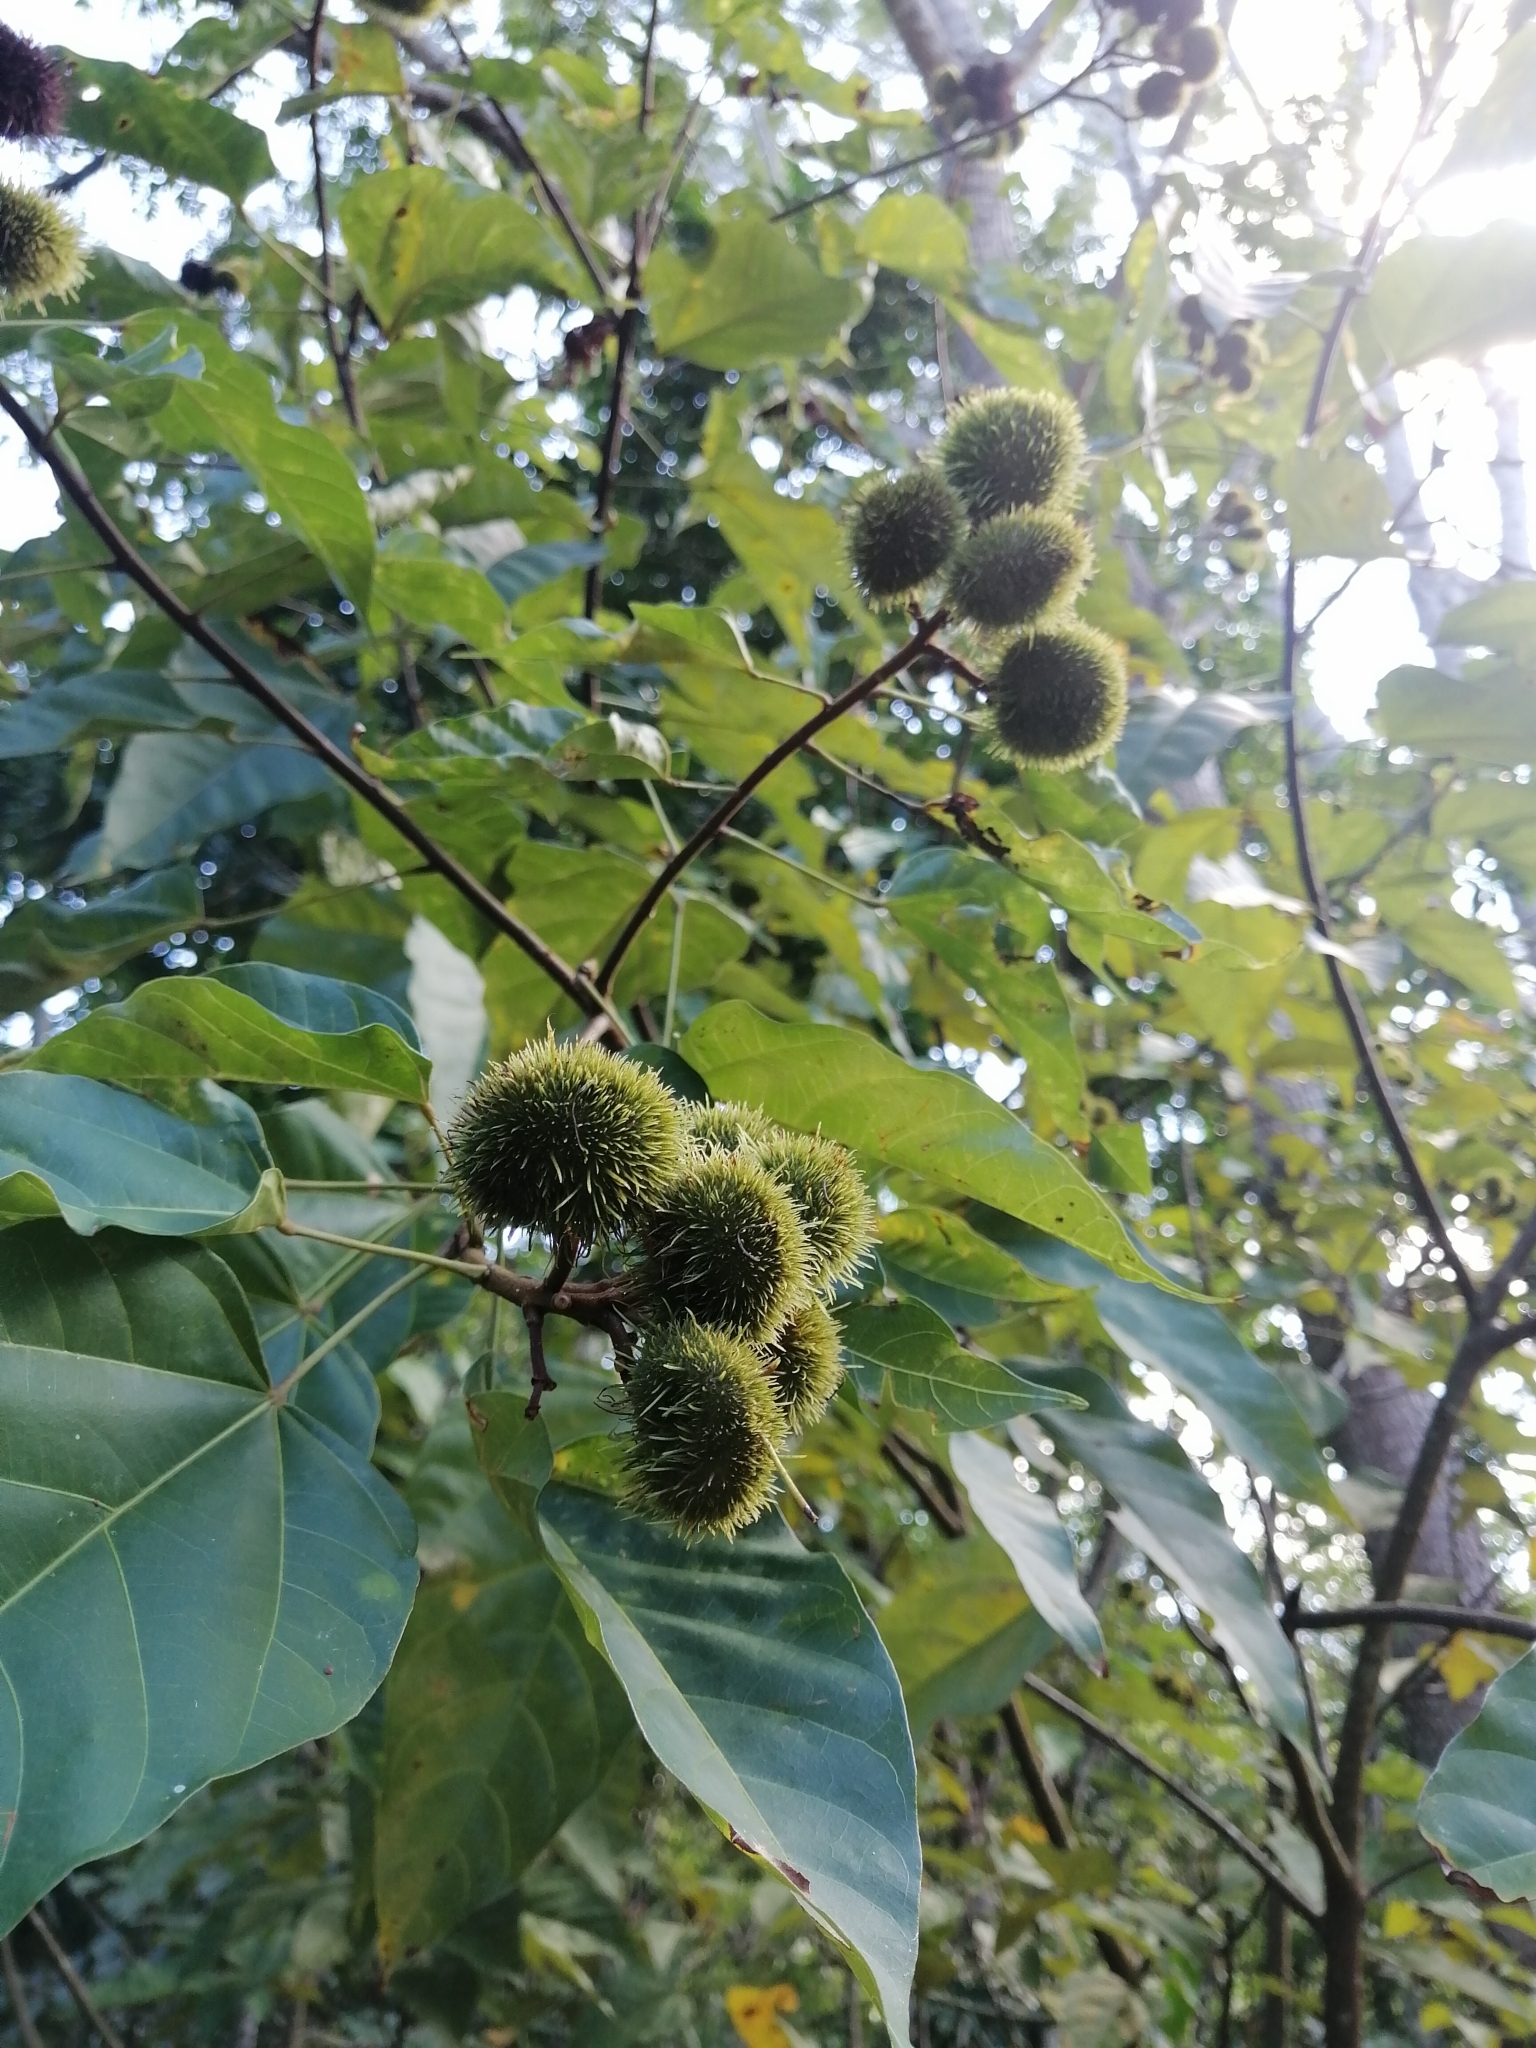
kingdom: Plantae
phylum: Tracheophyta
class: Magnoliopsida
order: Malvales
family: Bixaceae
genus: Bixa
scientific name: Bixa orellana
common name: Lipsticktree
